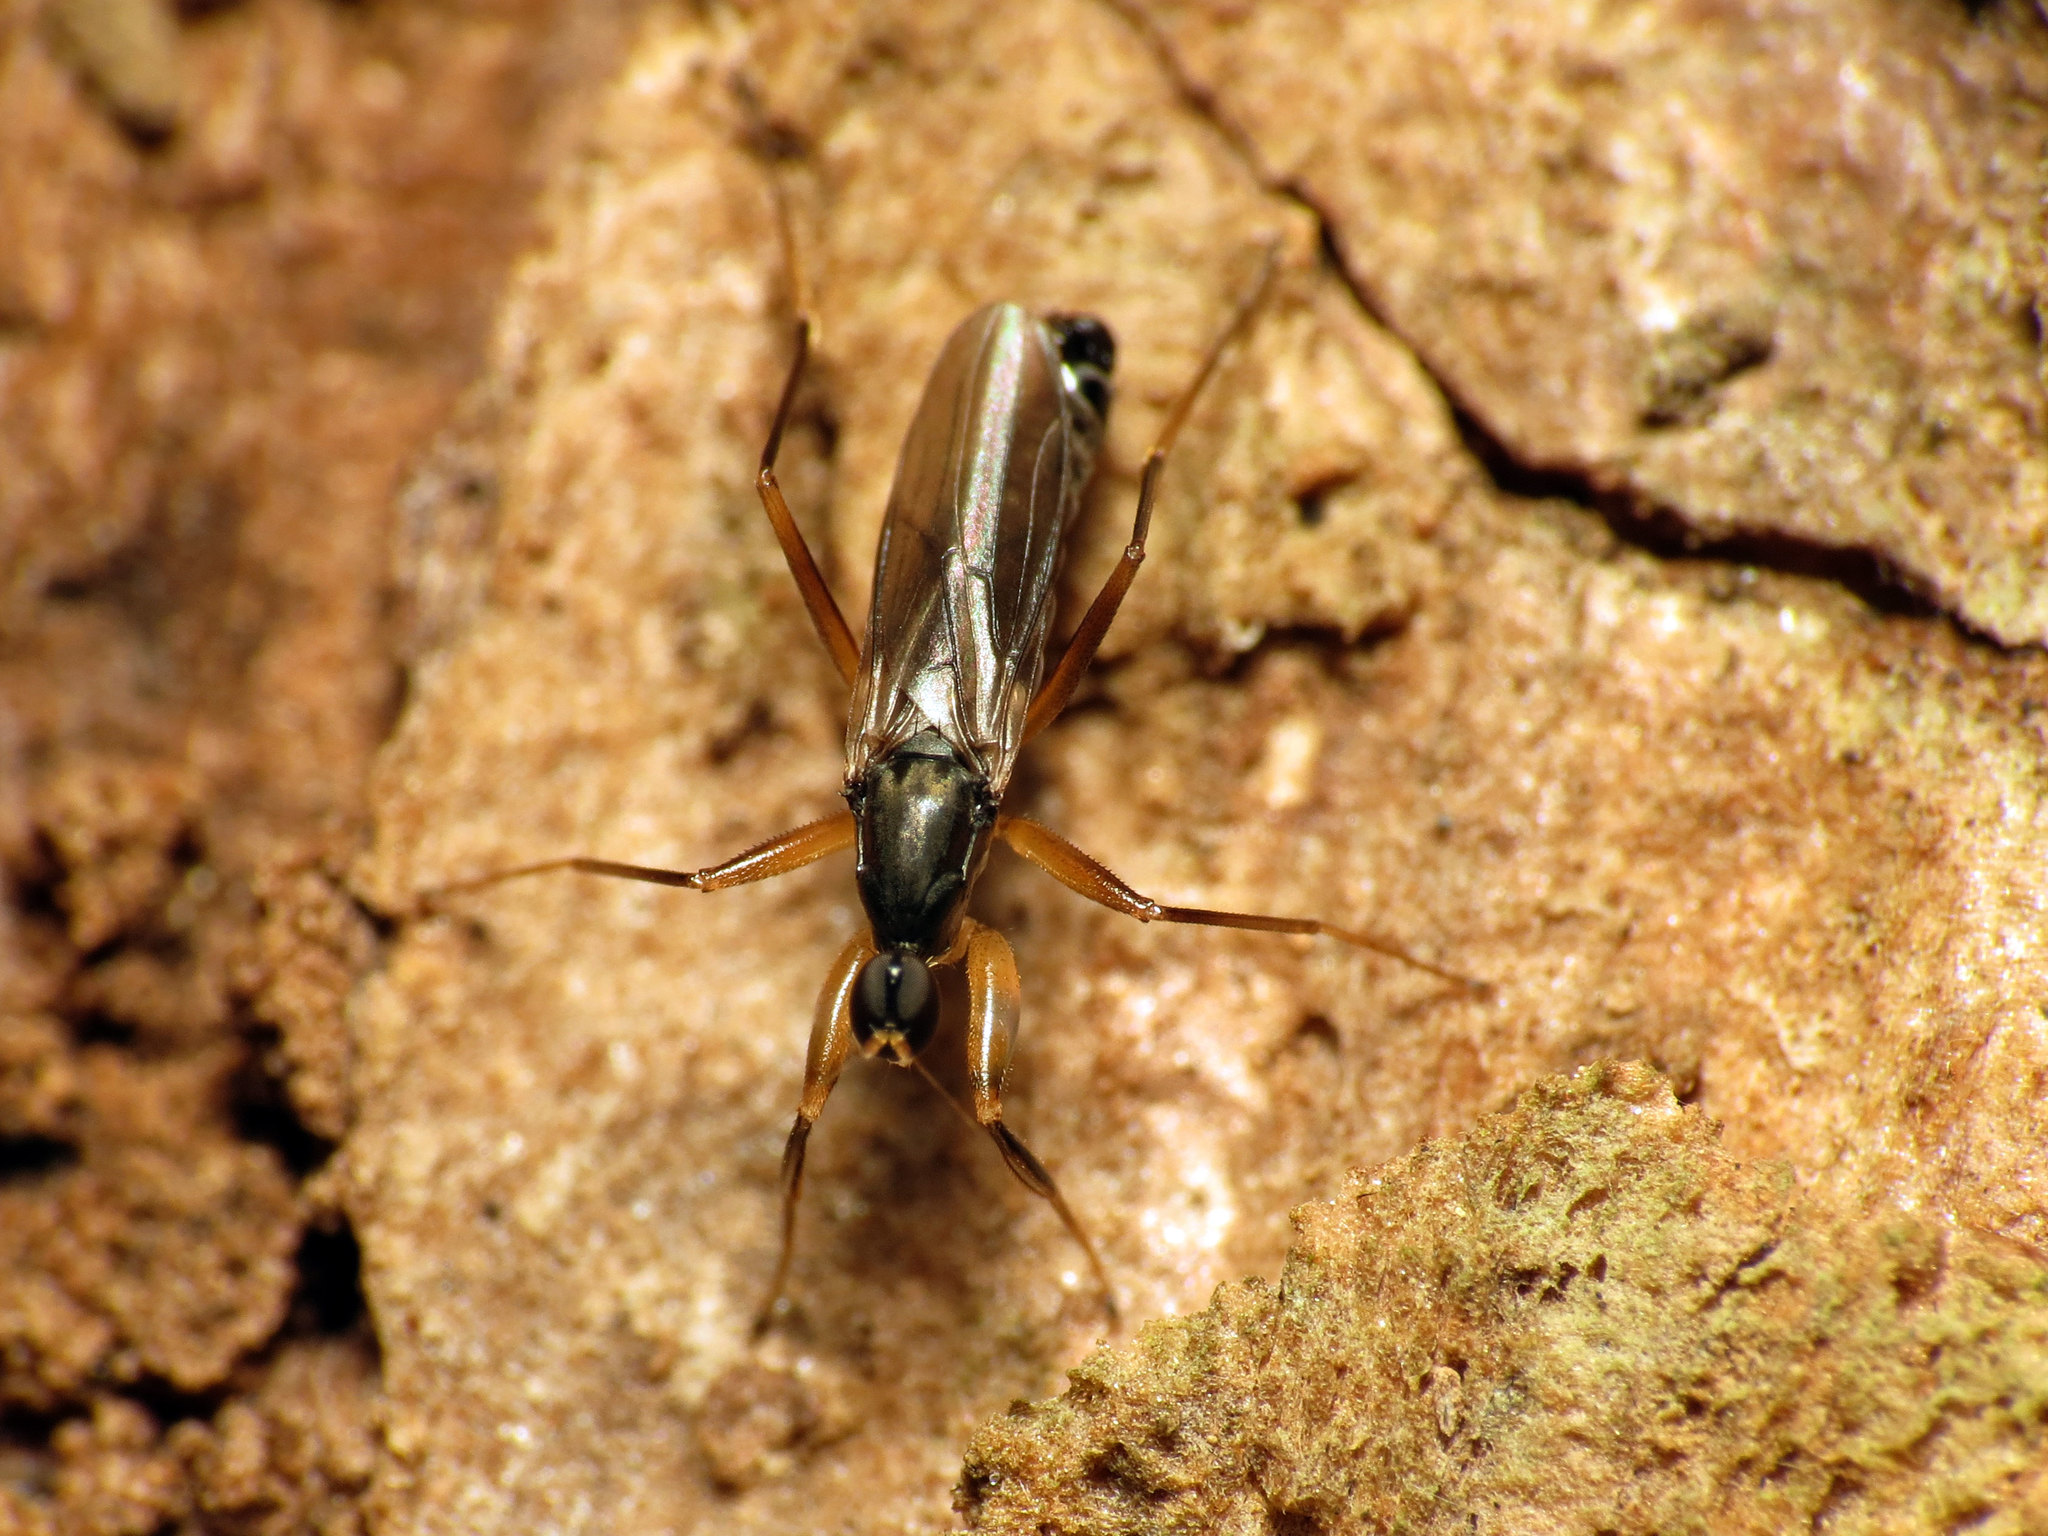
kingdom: Animalia
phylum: Arthropoda
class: Insecta
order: Diptera
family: Hybotidae
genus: Tachypeza
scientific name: Tachypeza pruinosa
